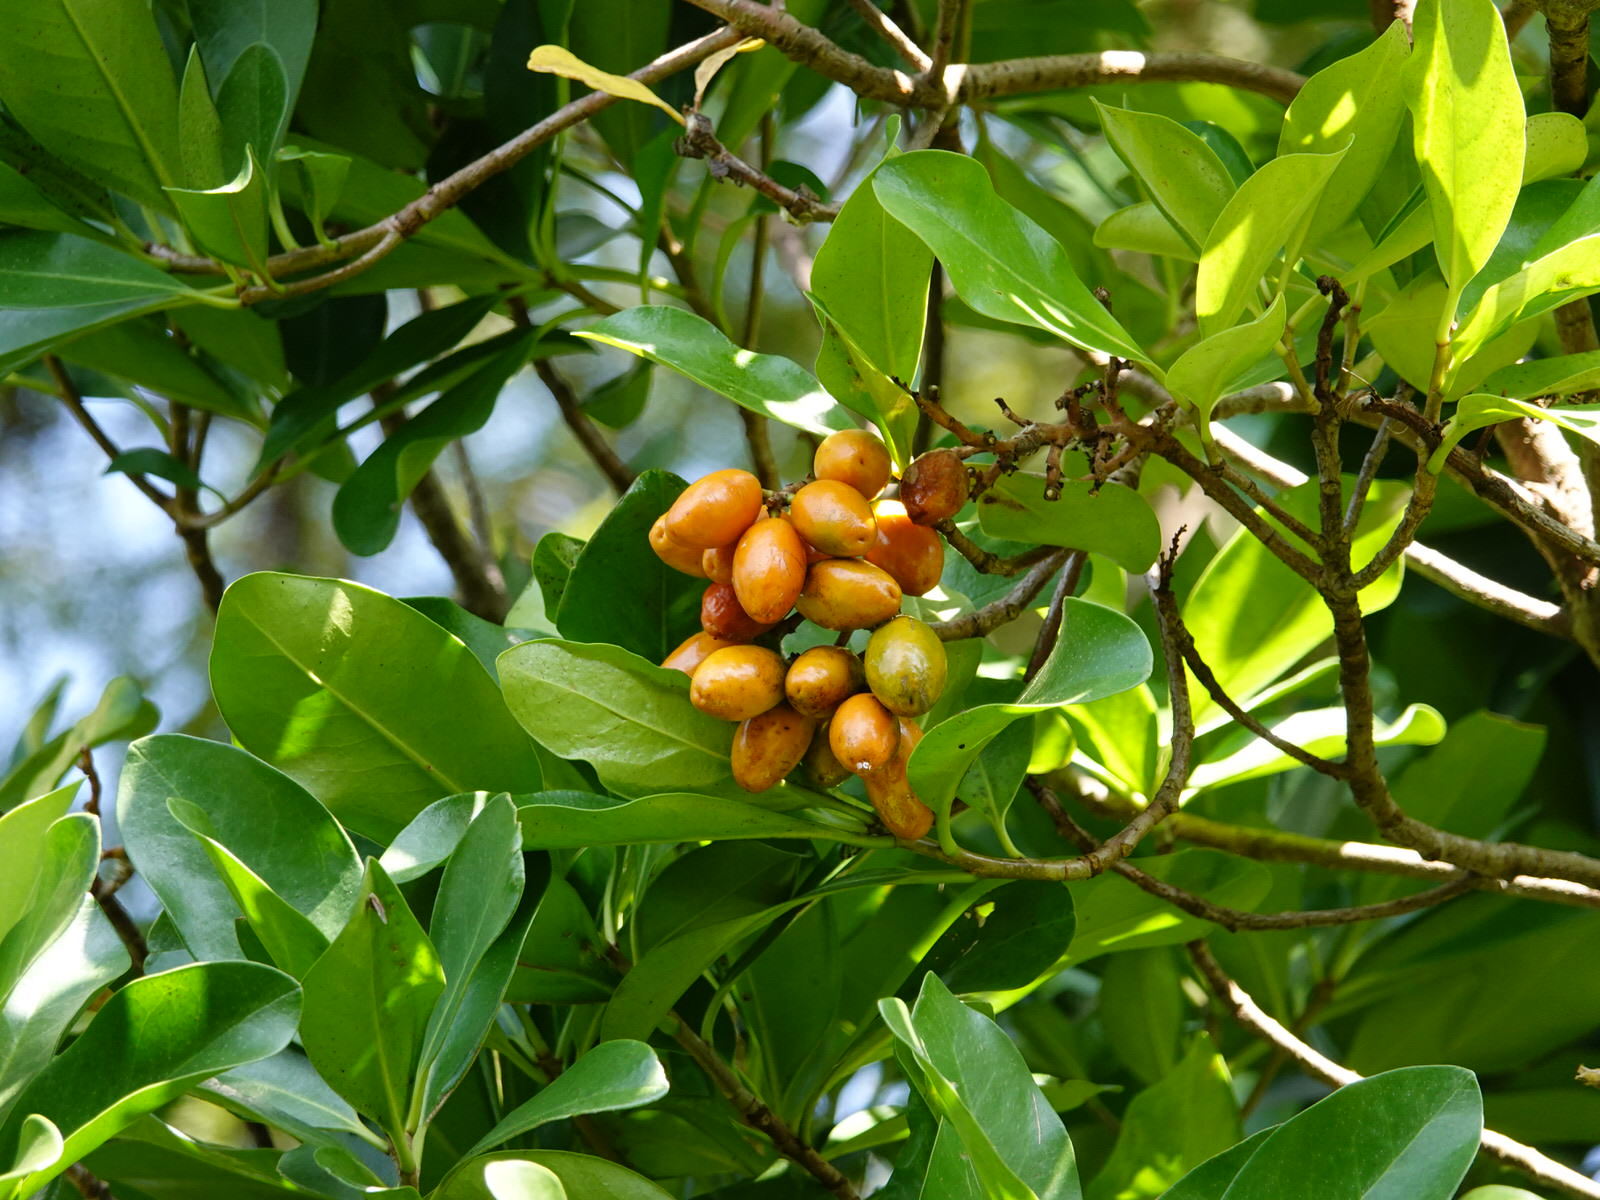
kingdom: Plantae
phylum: Tracheophyta
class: Magnoliopsida
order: Cucurbitales
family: Corynocarpaceae
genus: Corynocarpus
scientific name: Corynocarpus laevigatus
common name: New zealand laurel
